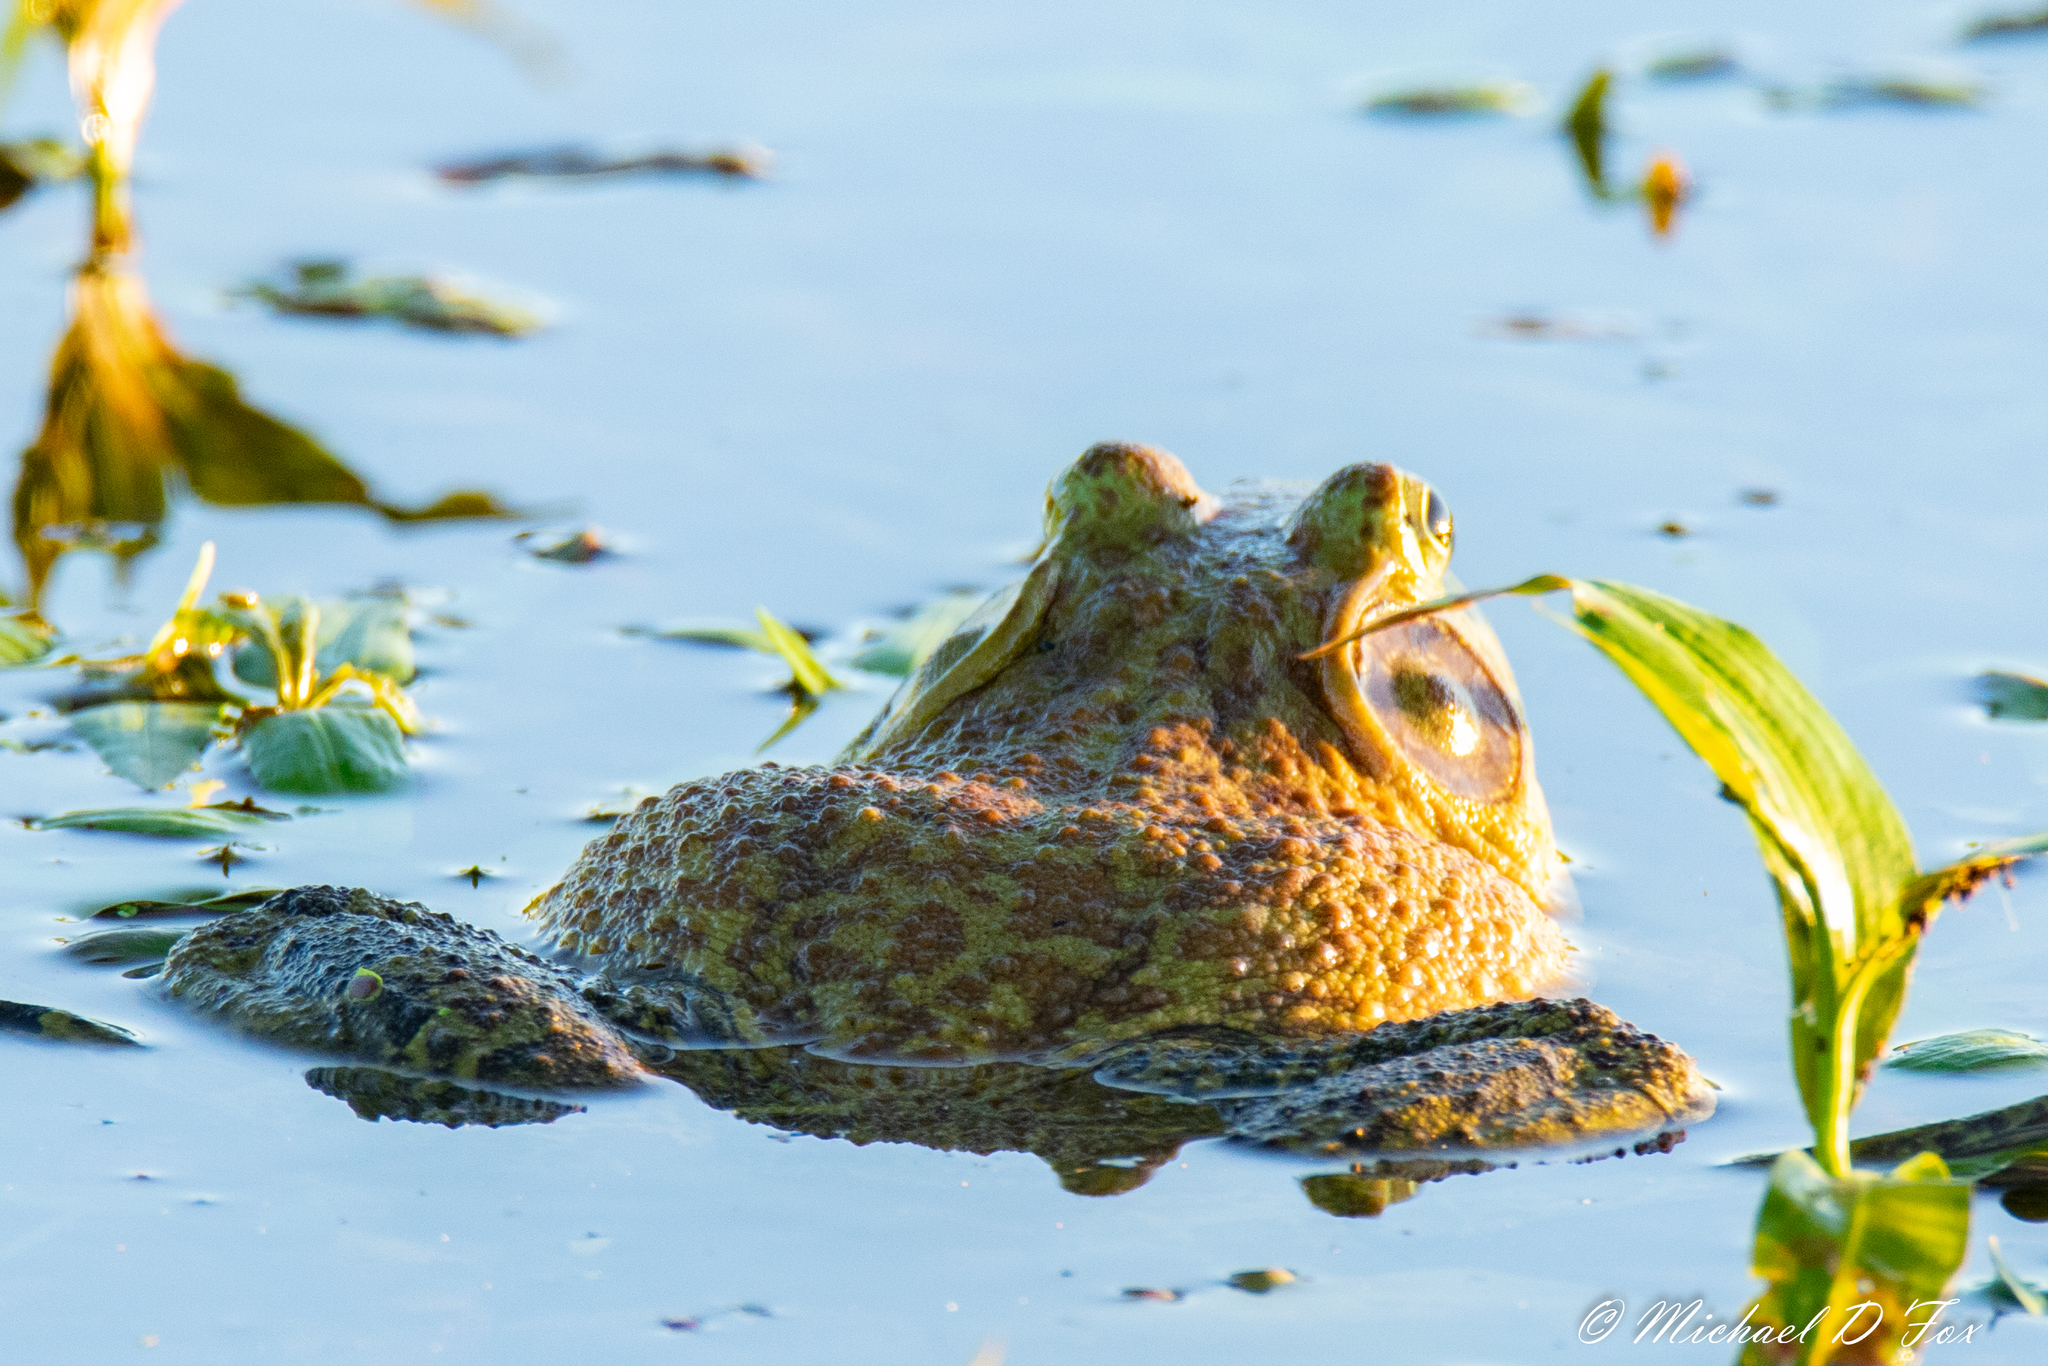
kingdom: Animalia
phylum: Chordata
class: Amphibia
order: Anura
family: Ranidae
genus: Lithobates
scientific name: Lithobates catesbeianus
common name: American bullfrog
